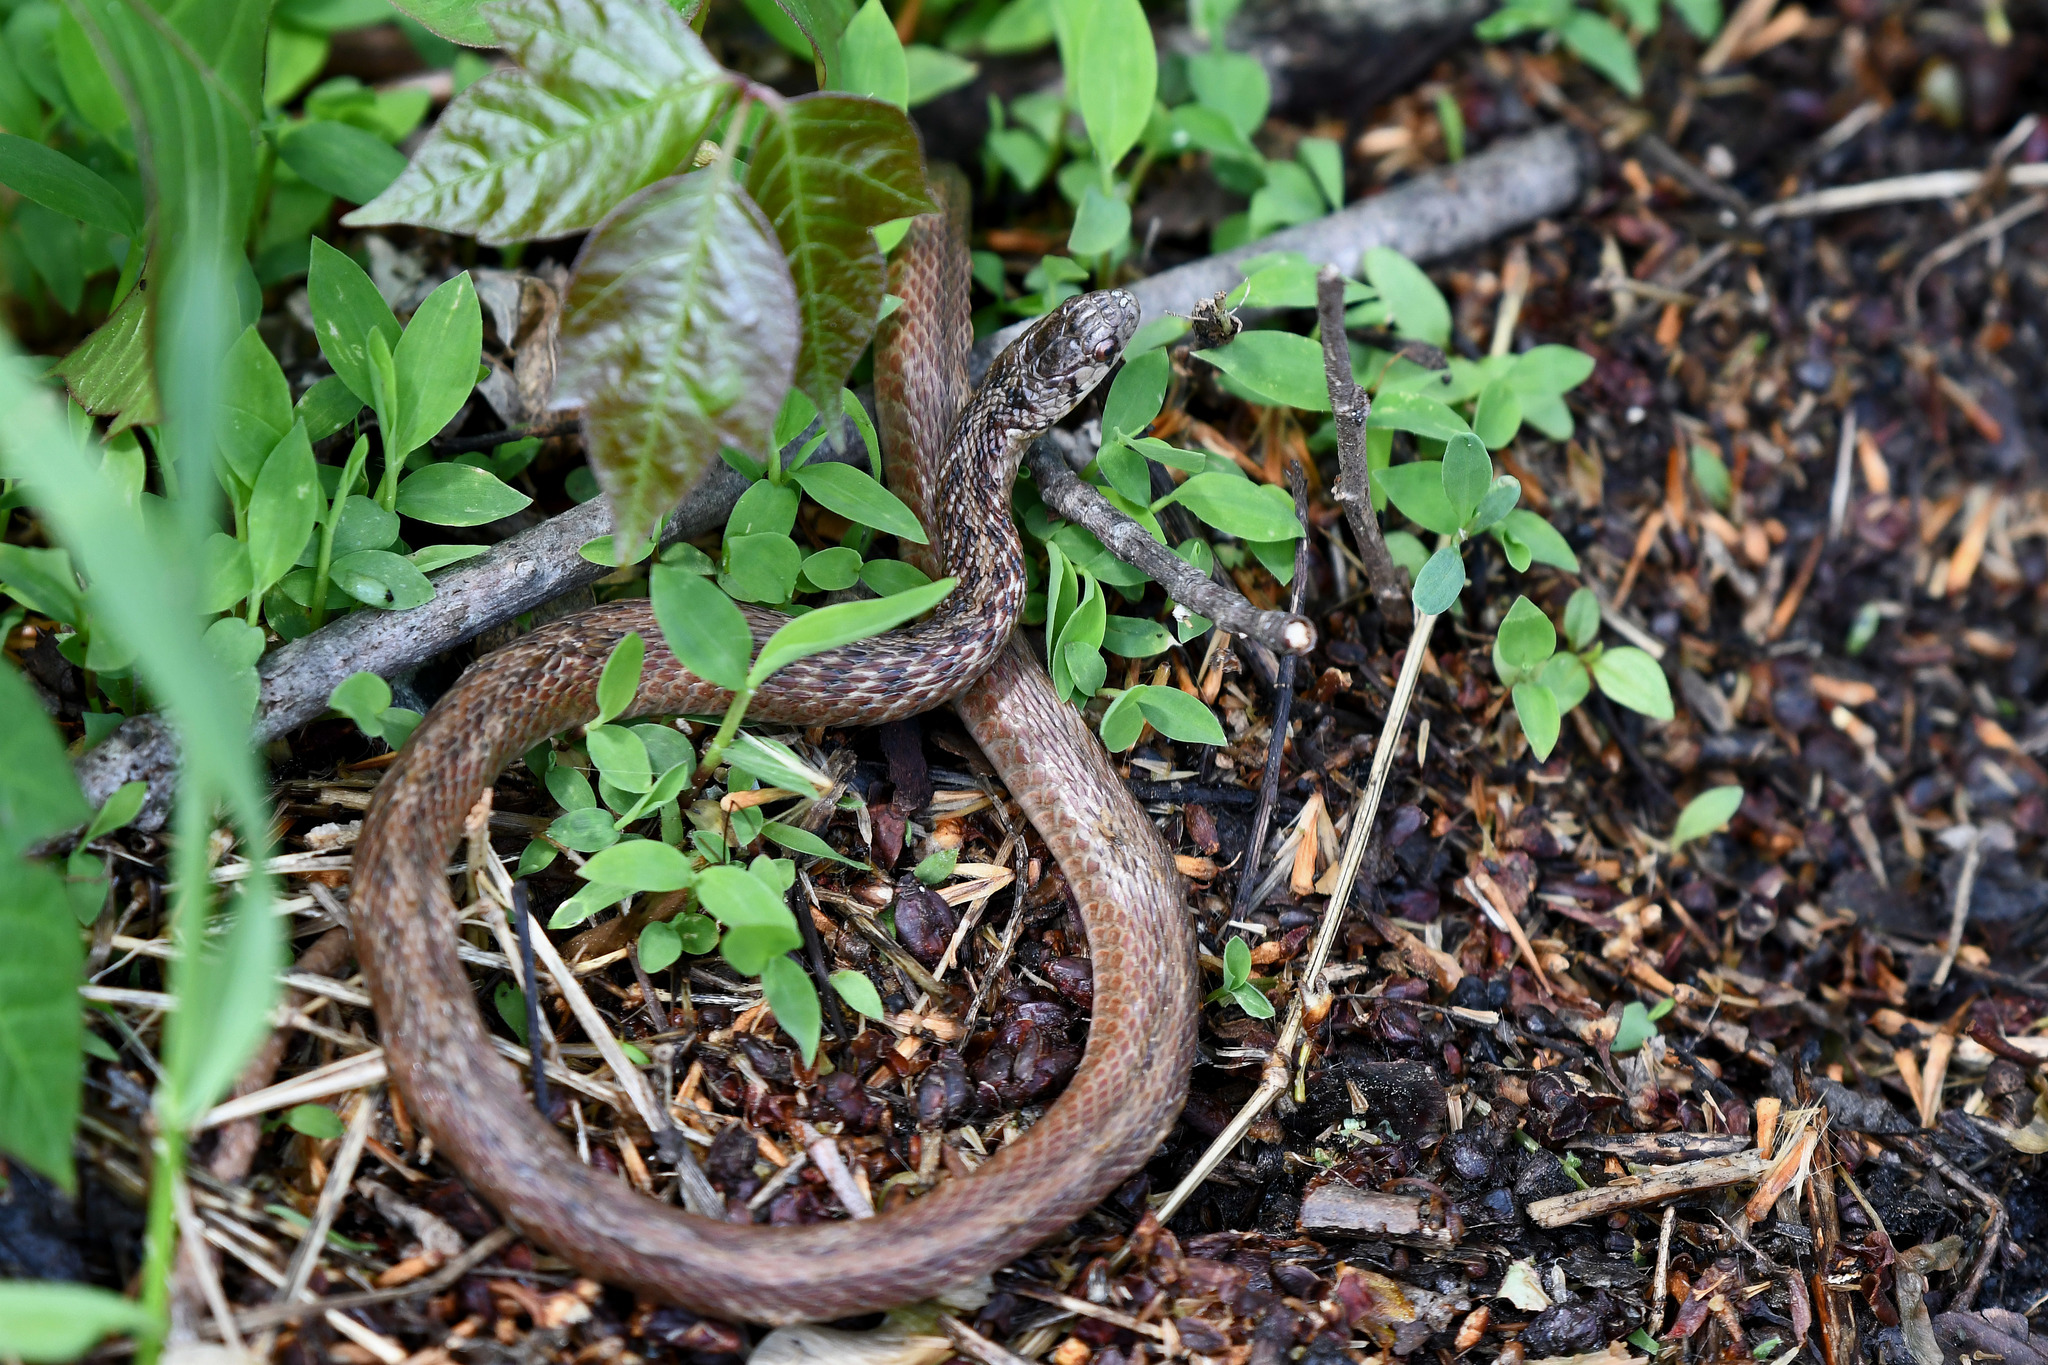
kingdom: Animalia
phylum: Chordata
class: Squamata
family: Colubridae
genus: Storeria
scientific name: Storeria dekayi
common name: (dekay’s) brown snake
